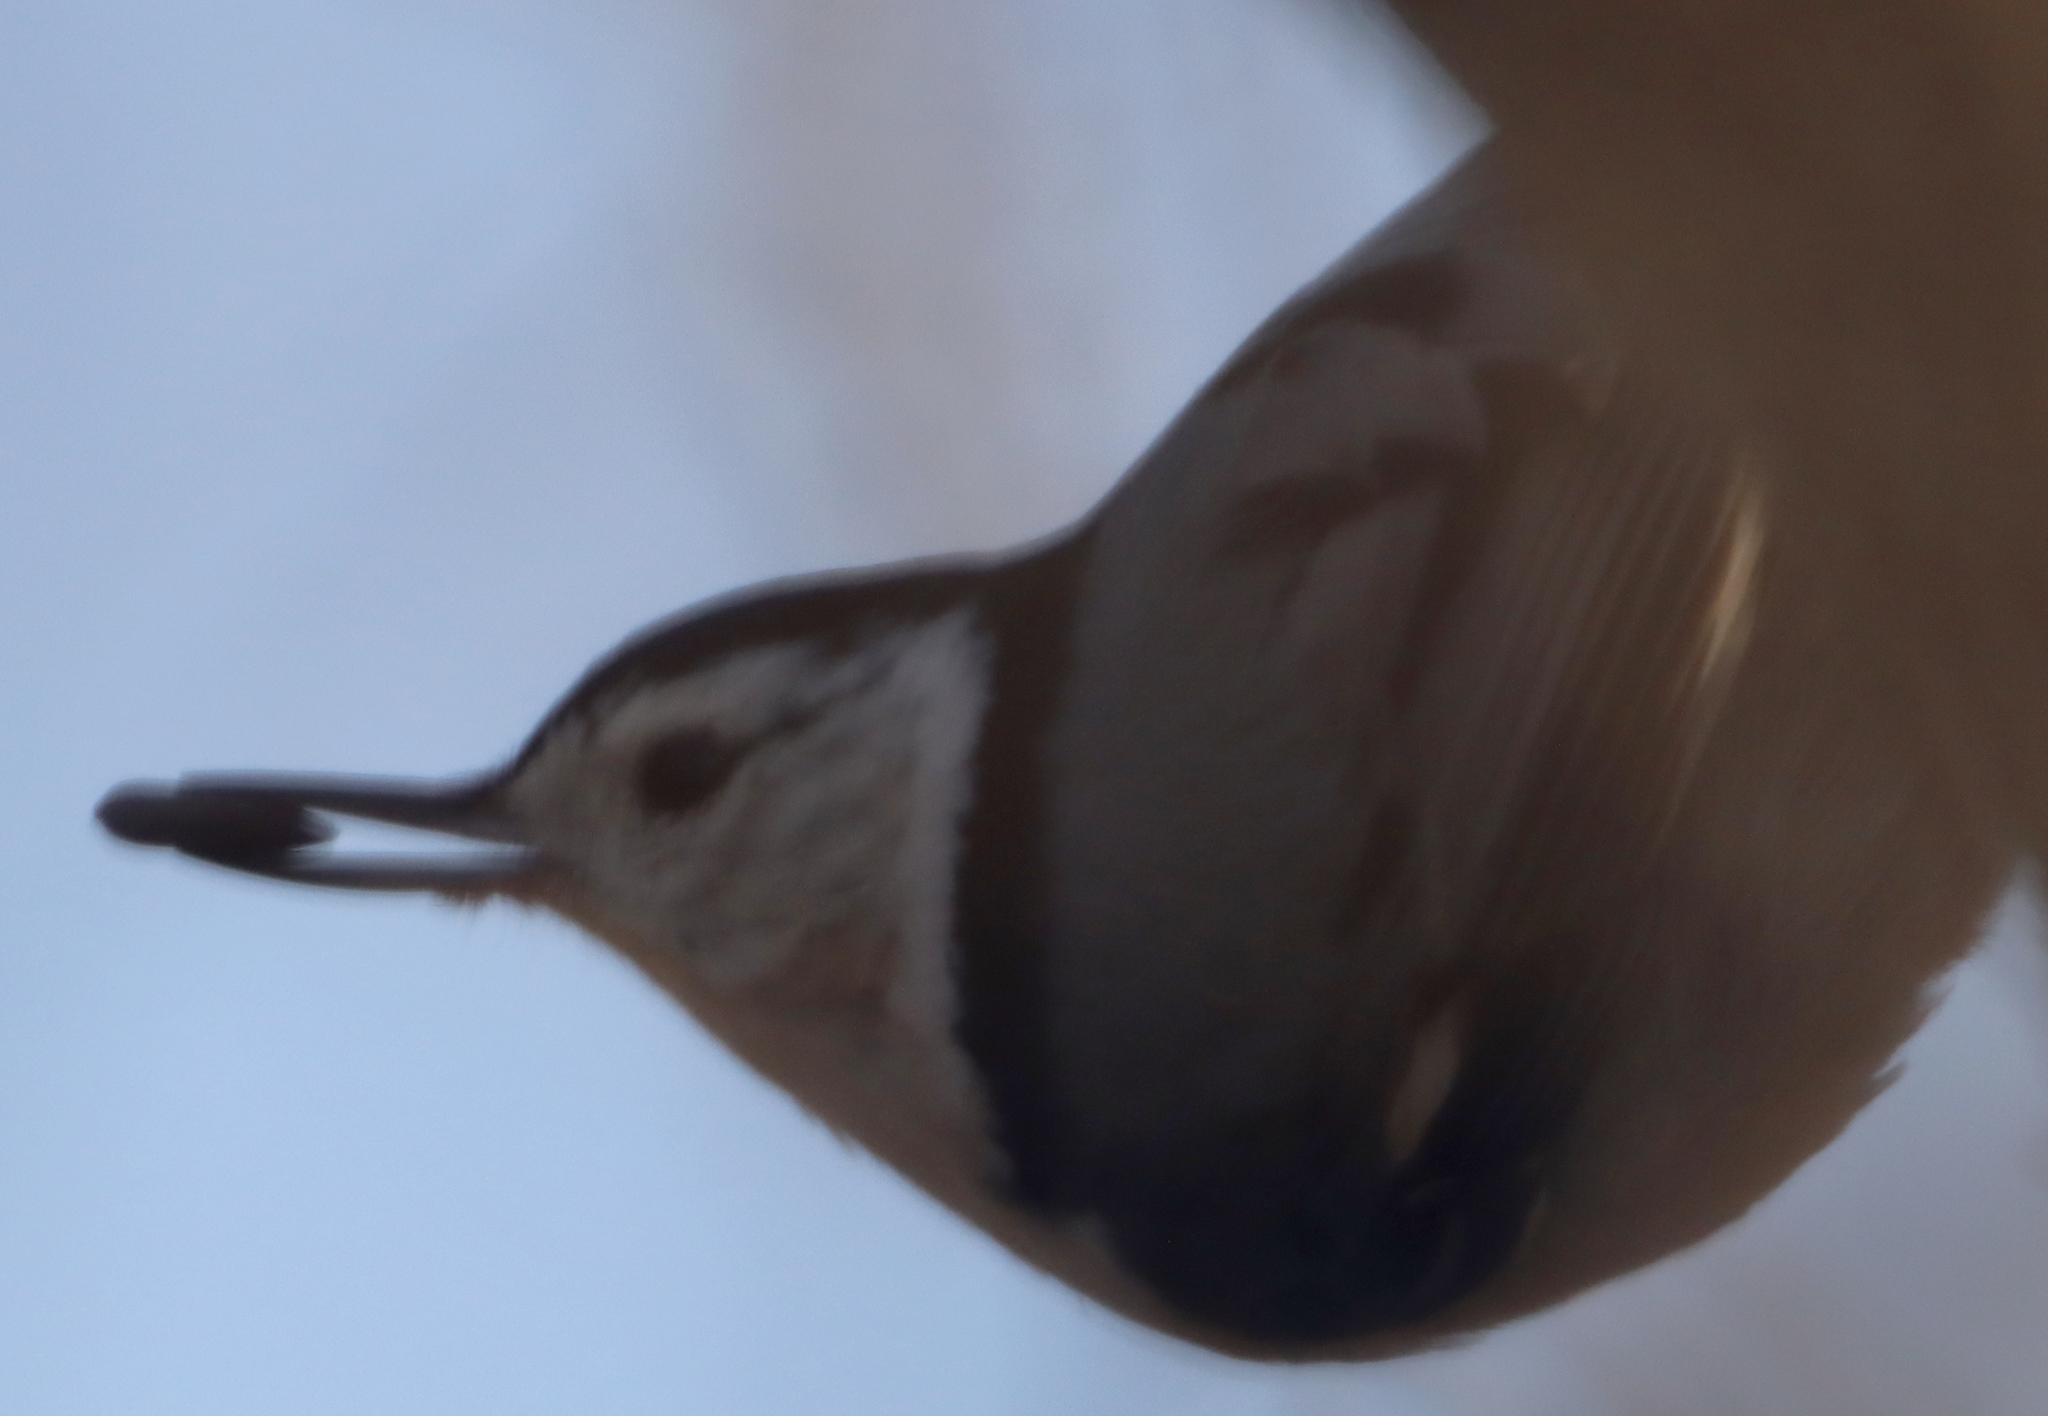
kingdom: Animalia
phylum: Chordata
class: Aves
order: Passeriformes
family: Sittidae
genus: Sitta
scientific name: Sitta carolinensis
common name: White-breasted nuthatch
